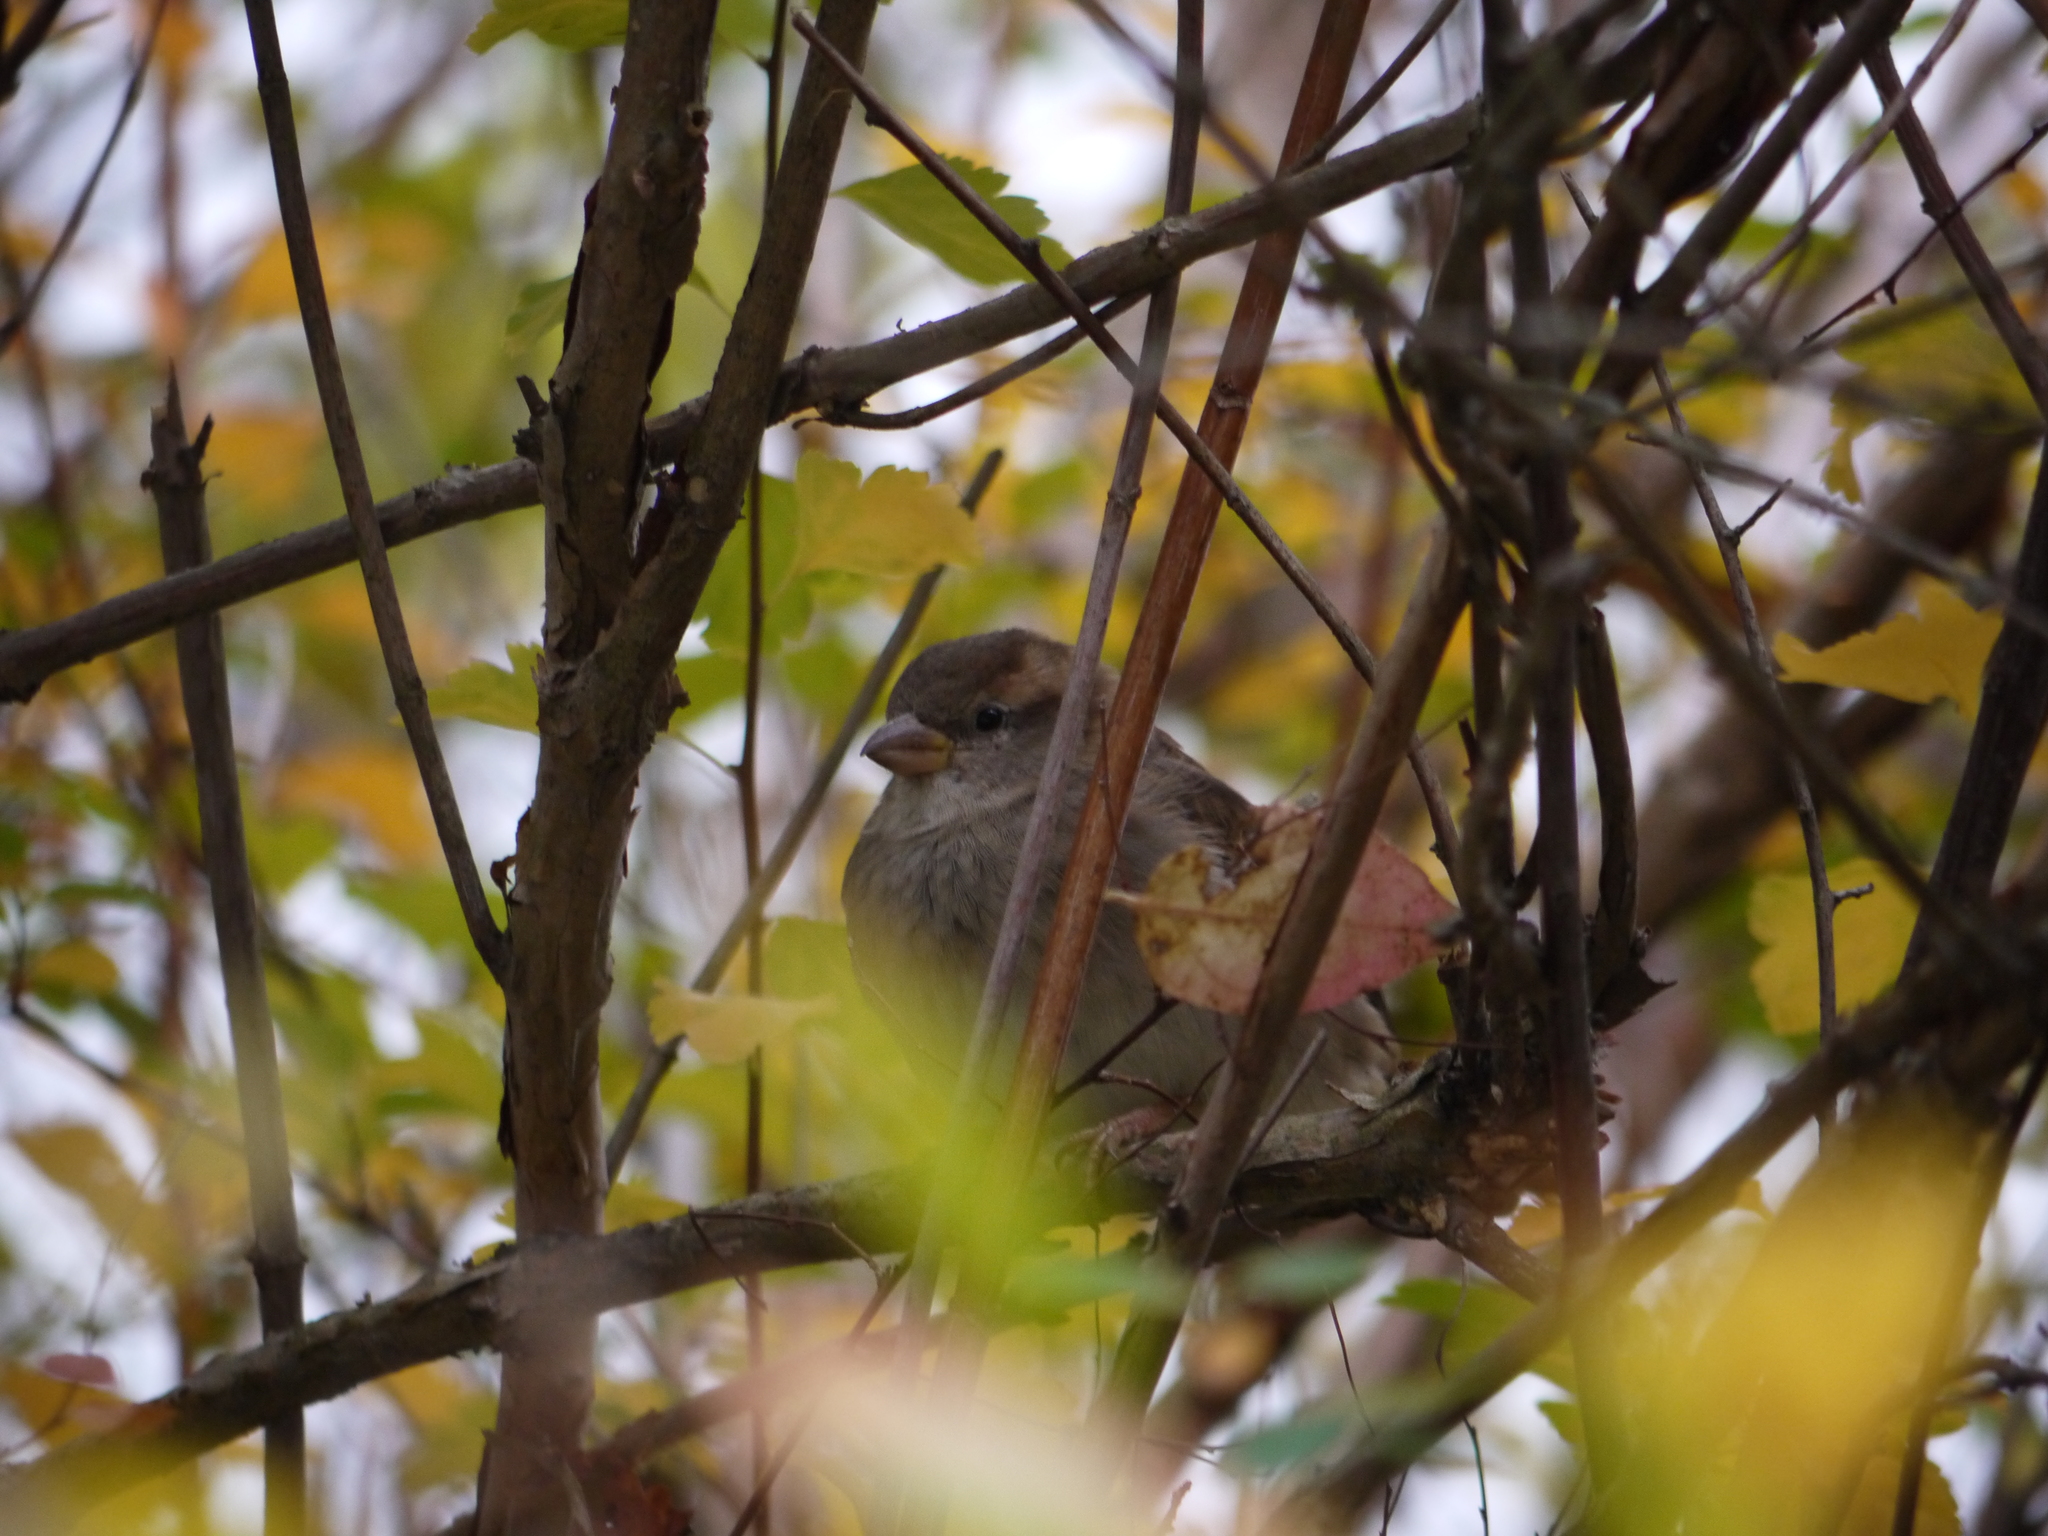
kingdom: Animalia
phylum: Chordata
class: Aves
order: Passeriformes
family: Passeridae
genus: Passer
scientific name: Passer domesticus
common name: House sparrow
